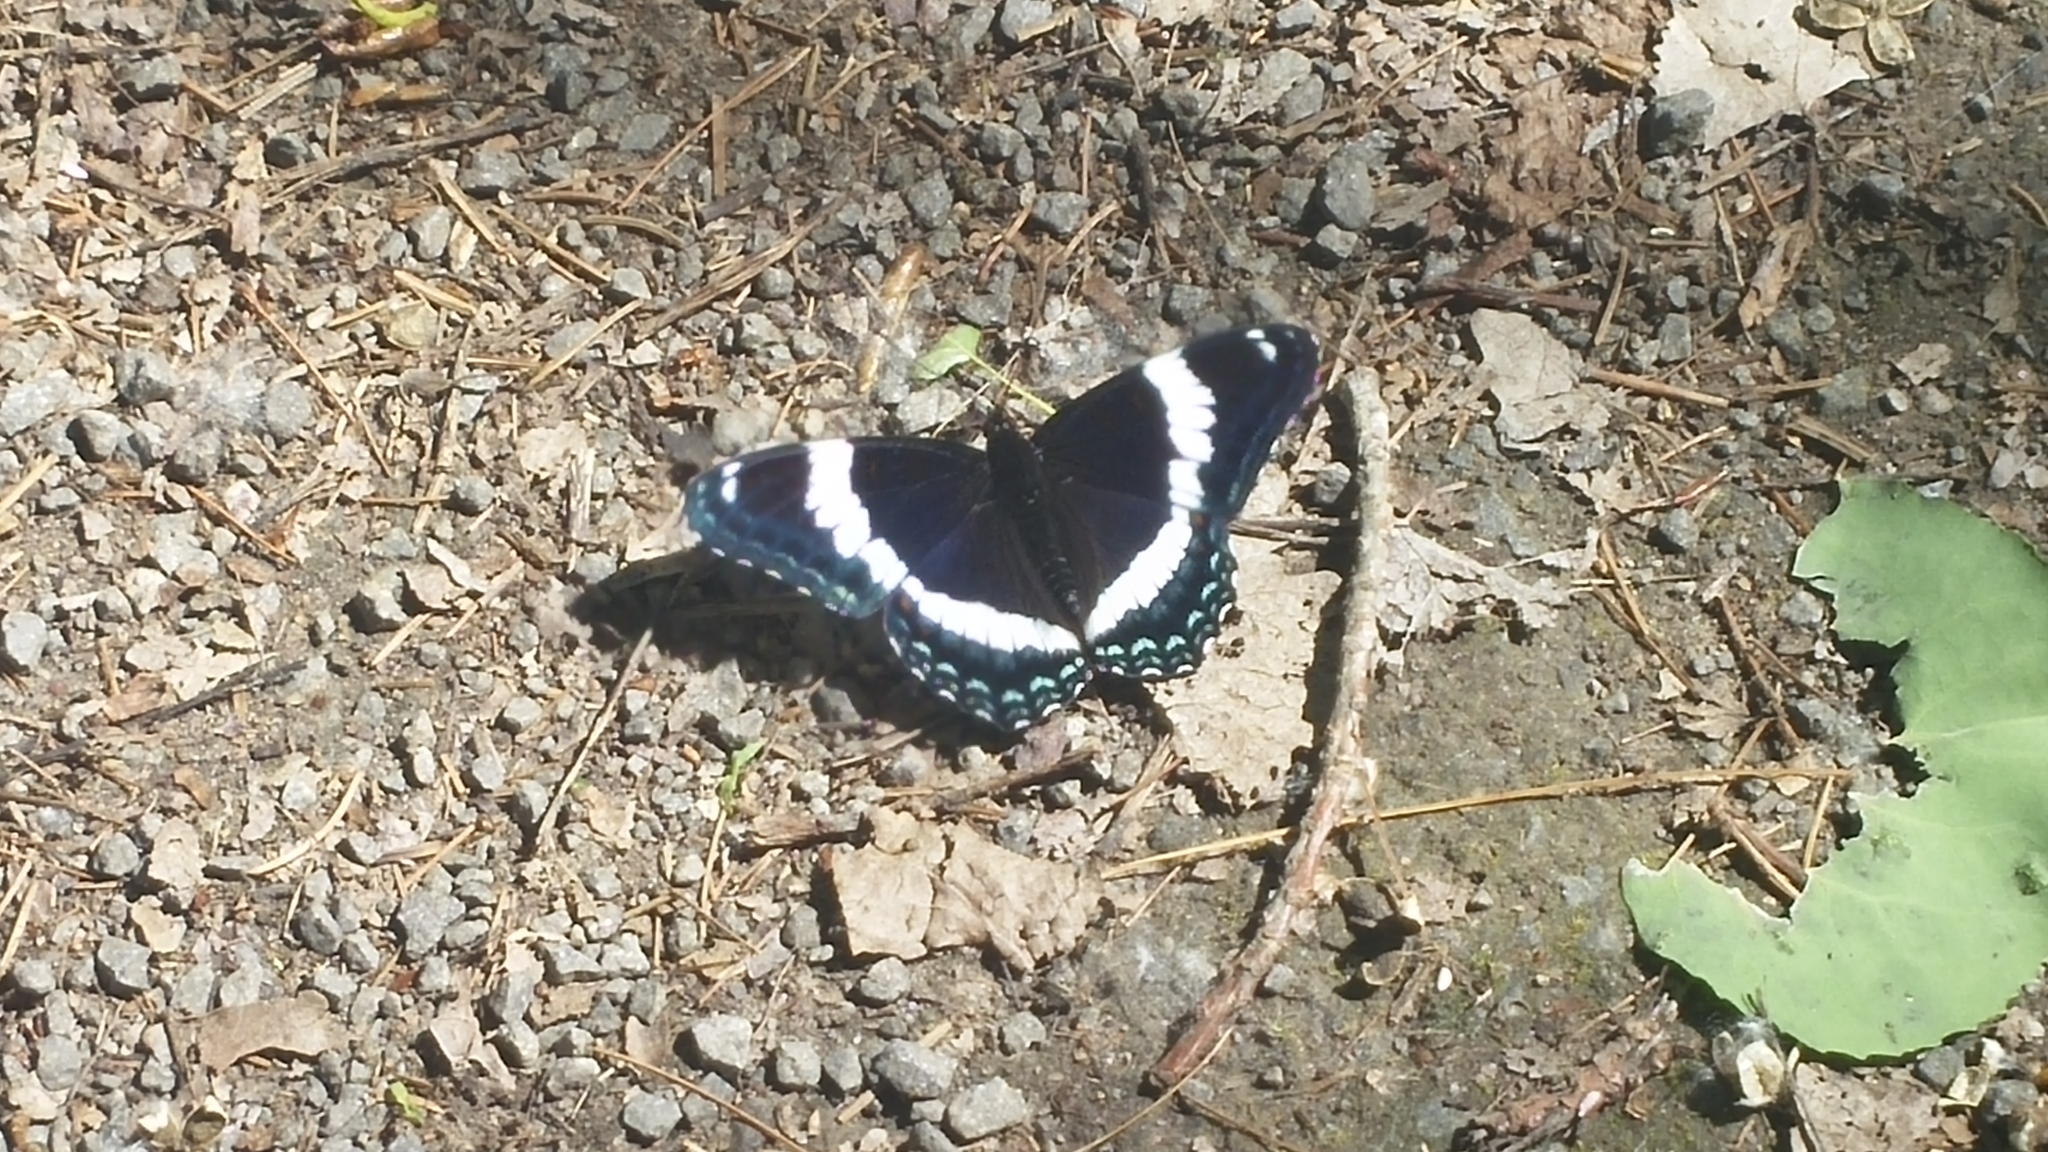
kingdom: Animalia
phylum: Arthropoda
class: Insecta
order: Lepidoptera
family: Nymphalidae
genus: Limenitis
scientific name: Limenitis arthemis
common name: Red-spotted admiral
